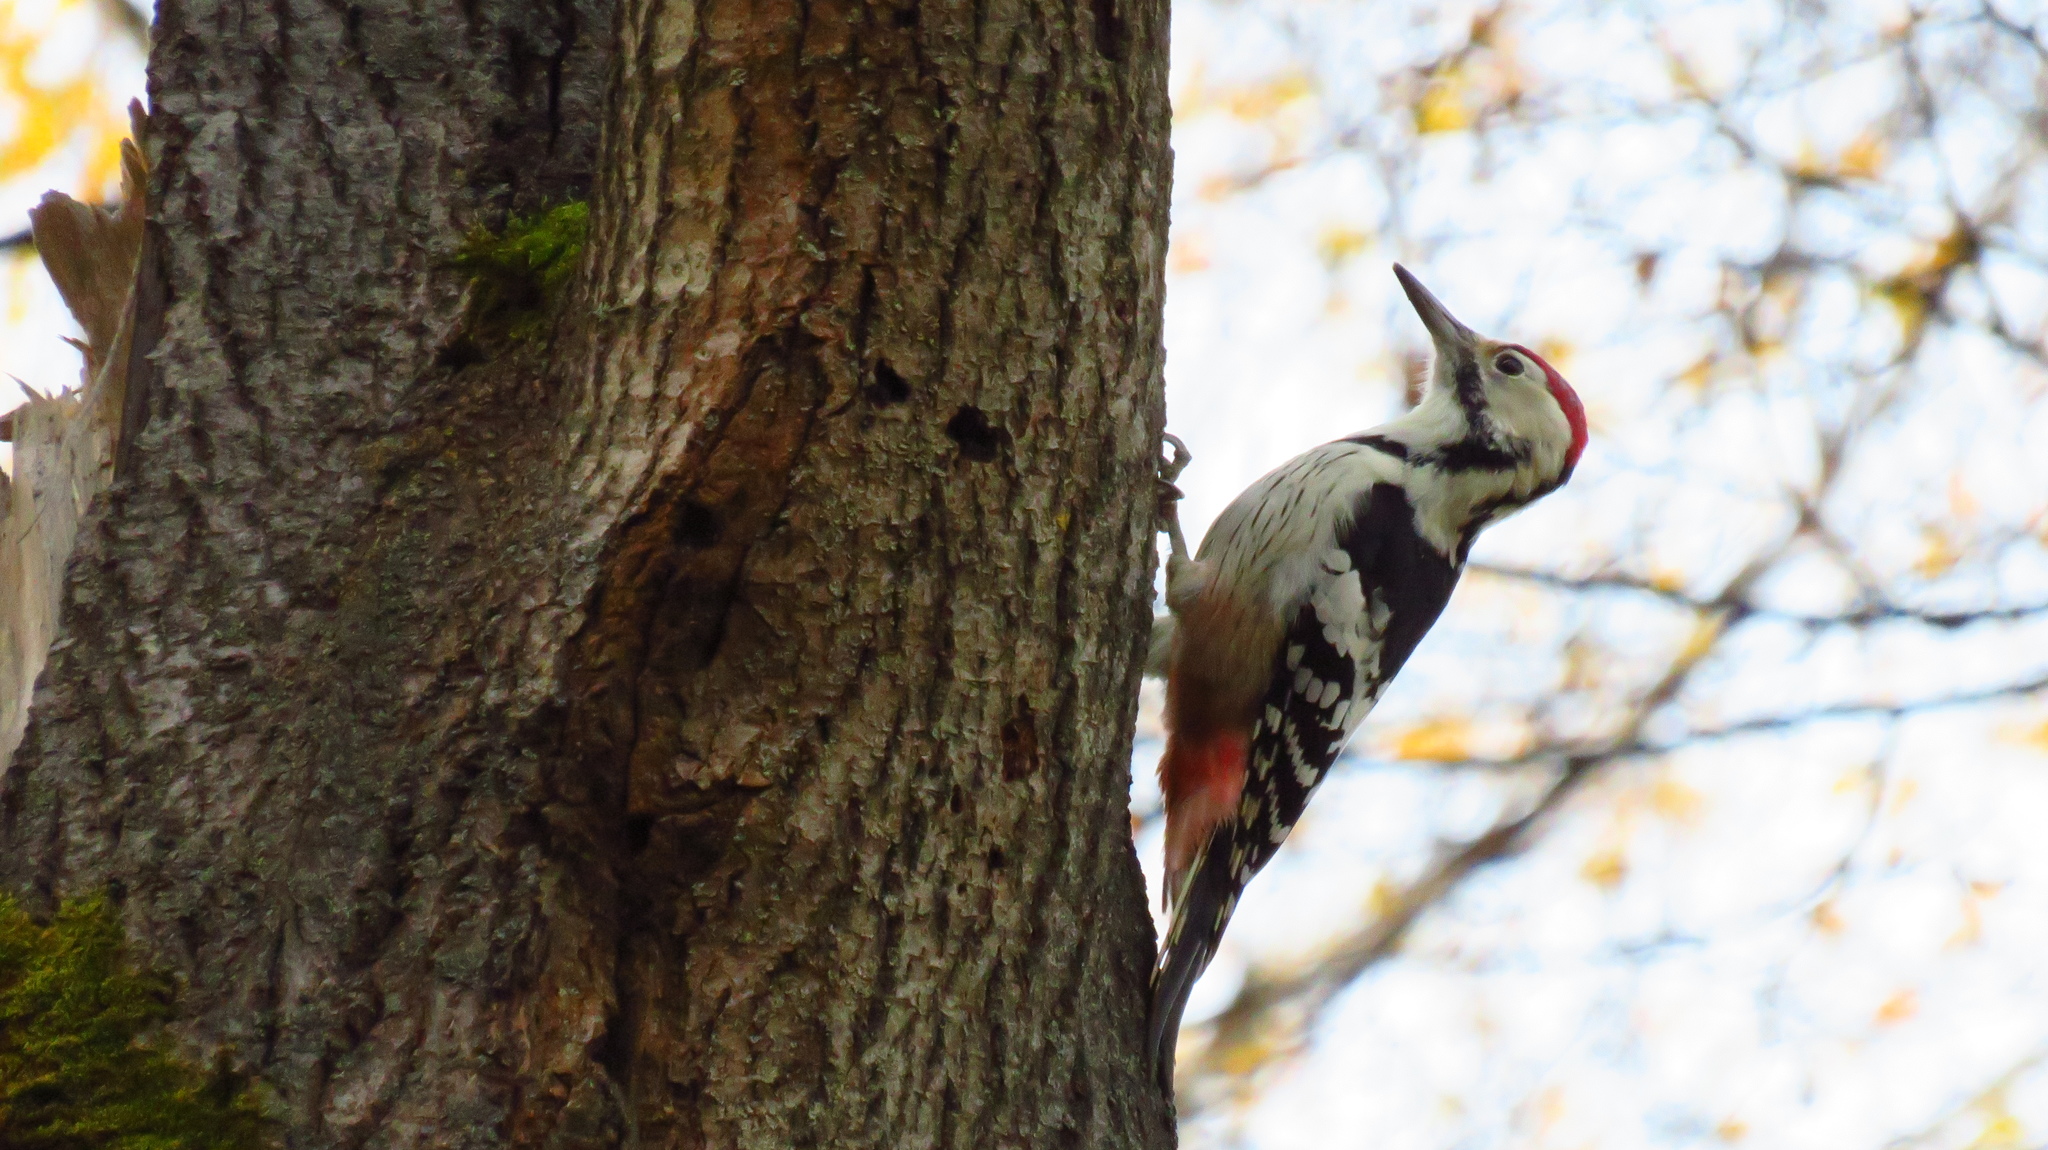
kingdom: Animalia
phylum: Chordata
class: Aves
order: Piciformes
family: Picidae
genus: Dendrocopos
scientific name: Dendrocopos leucotos
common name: White-backed woodpecker
